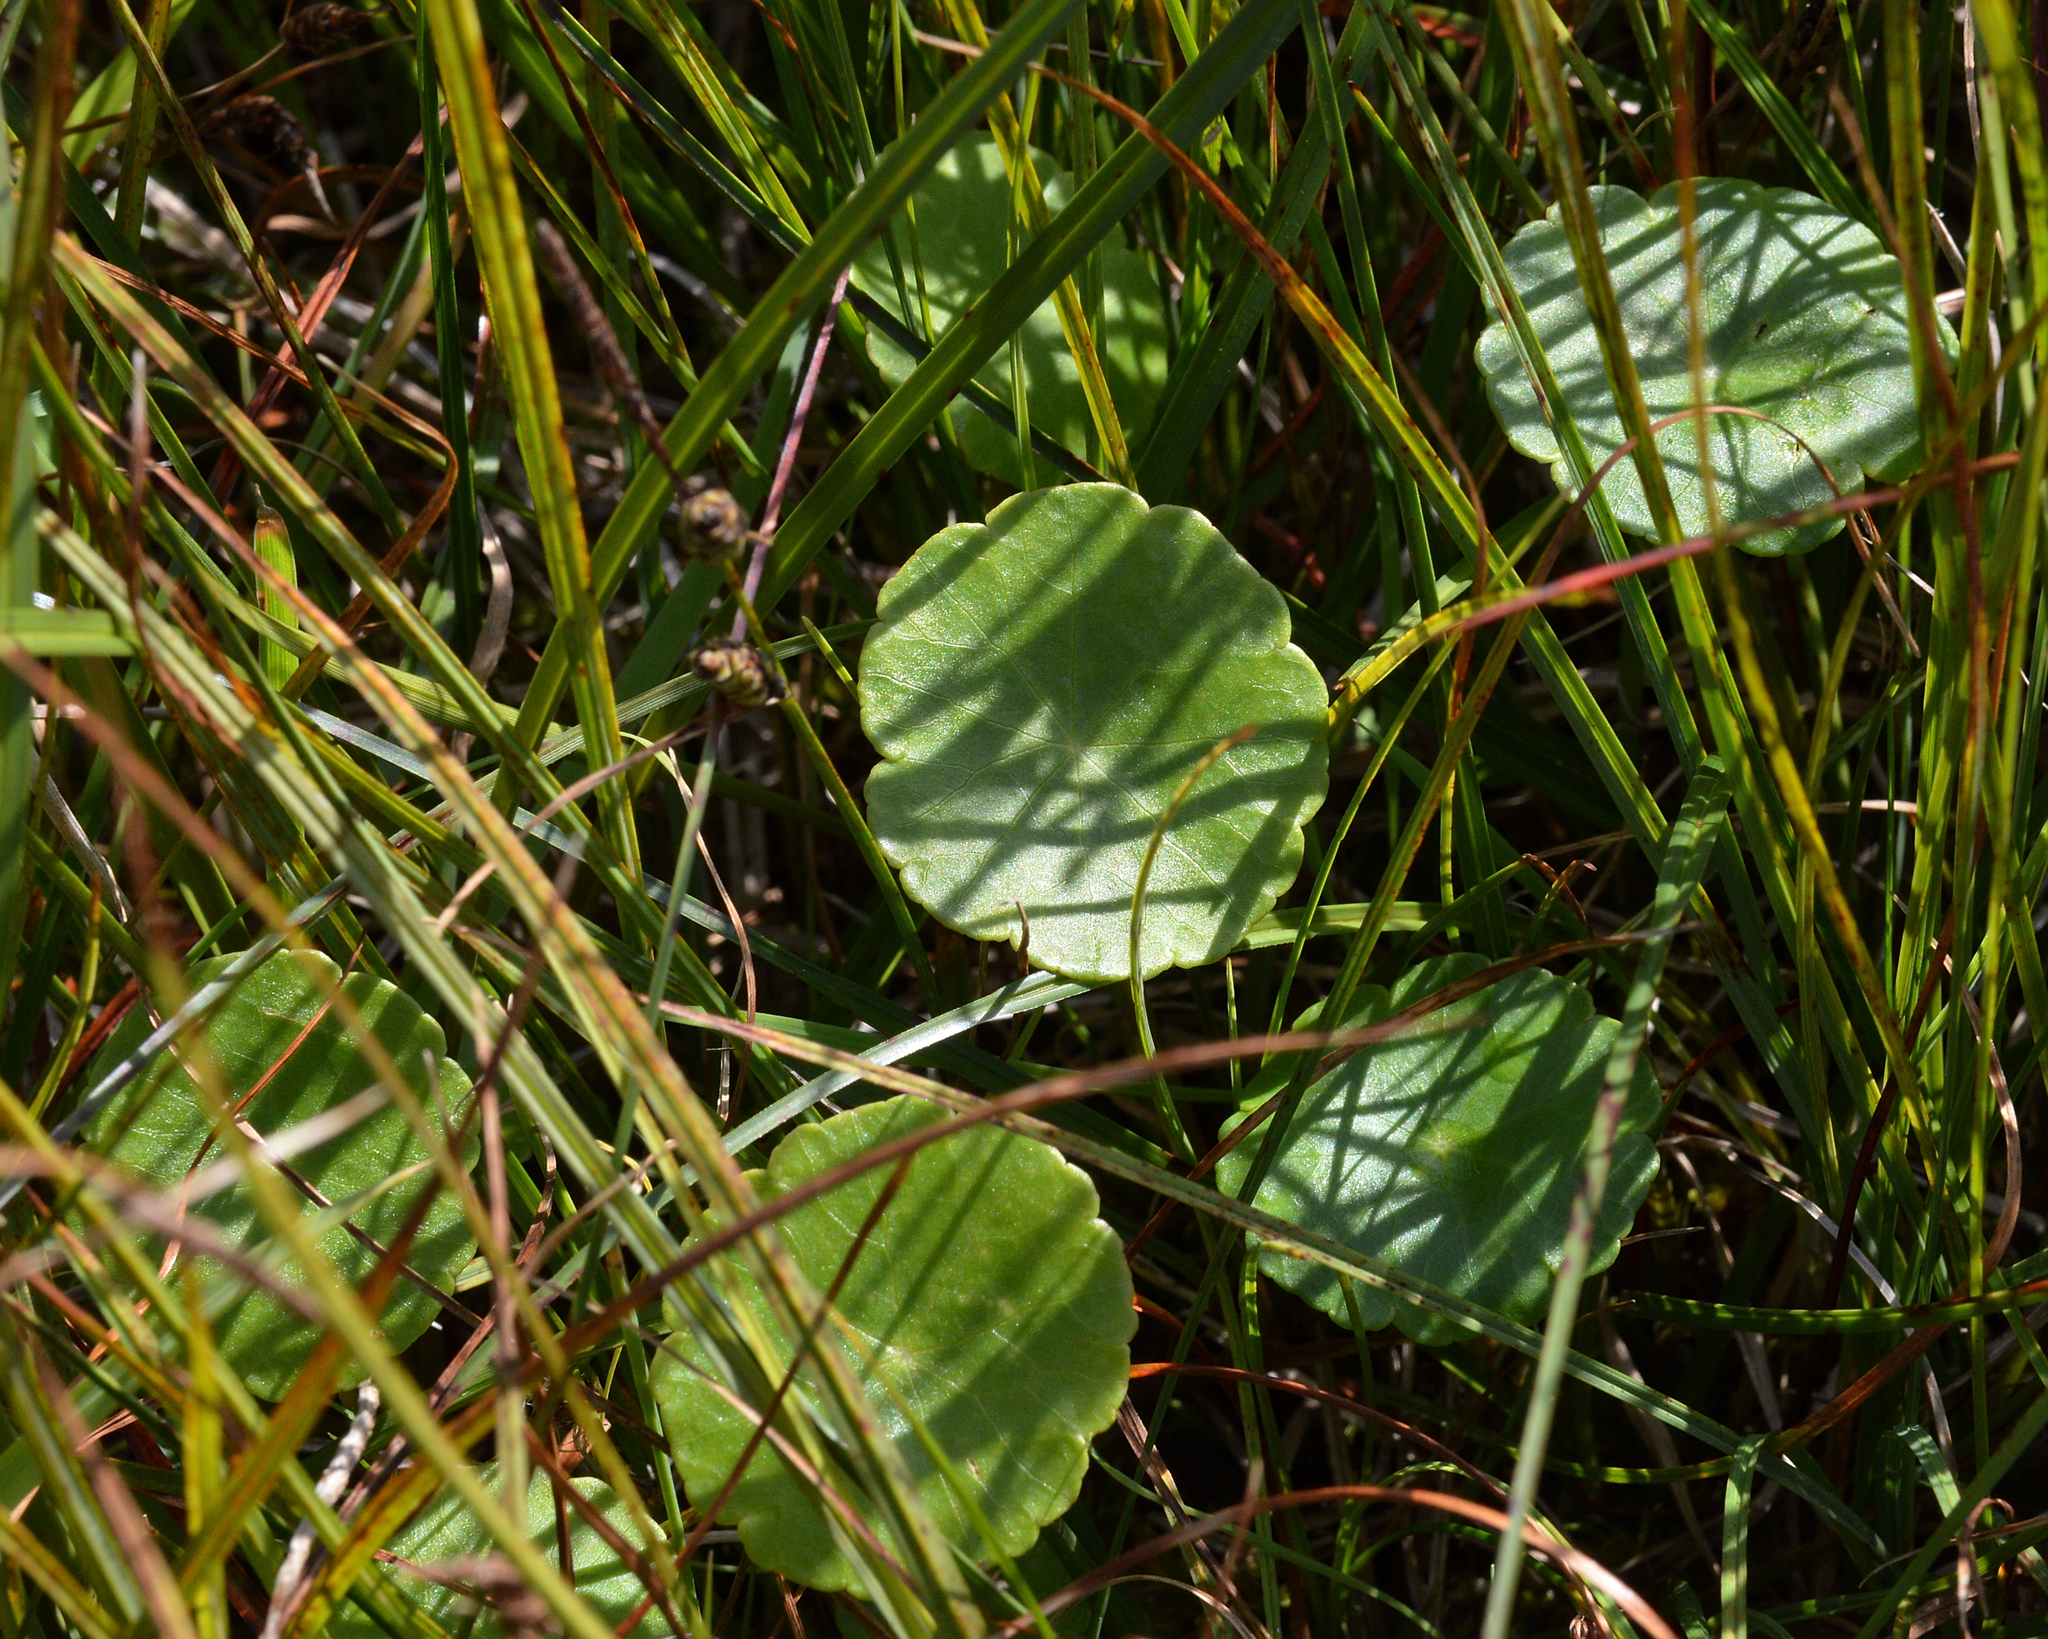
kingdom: Plantae
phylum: Tracheophyta
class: Magnoliopsida
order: Apiales
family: Araliaceae
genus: Hydrocotyle
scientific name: Hydrocotyle vulgaris
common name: Marsh pennywort
